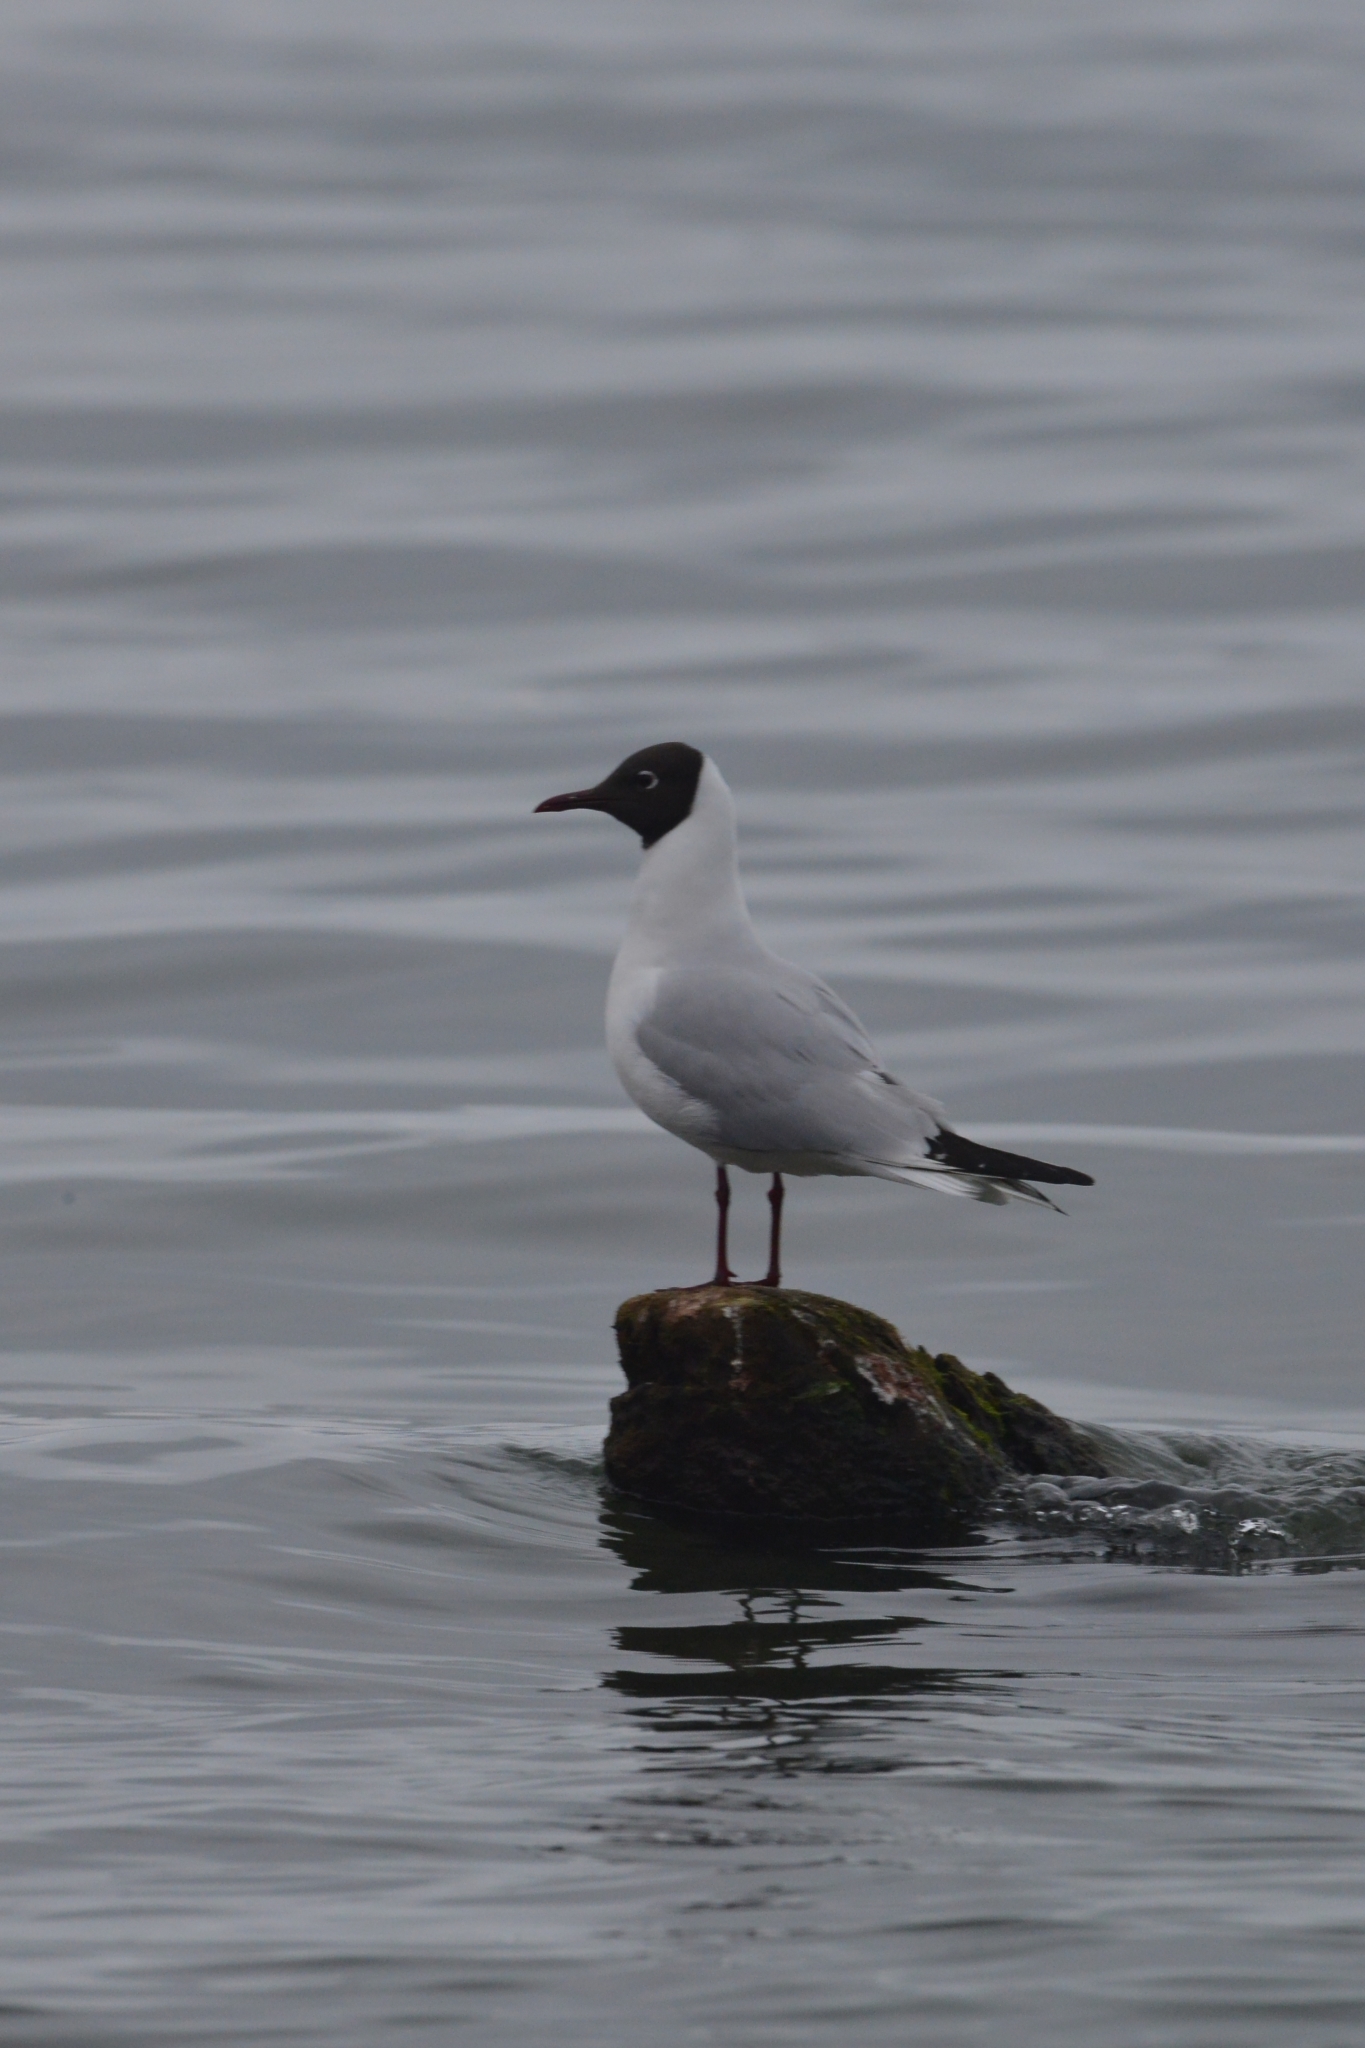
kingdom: Animalia
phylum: Chordata
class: Aves
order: Charadriiformes
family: Laridae
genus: Chroicocephalus
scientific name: Chroicocephalus ridibundus
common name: Black-headed gull
